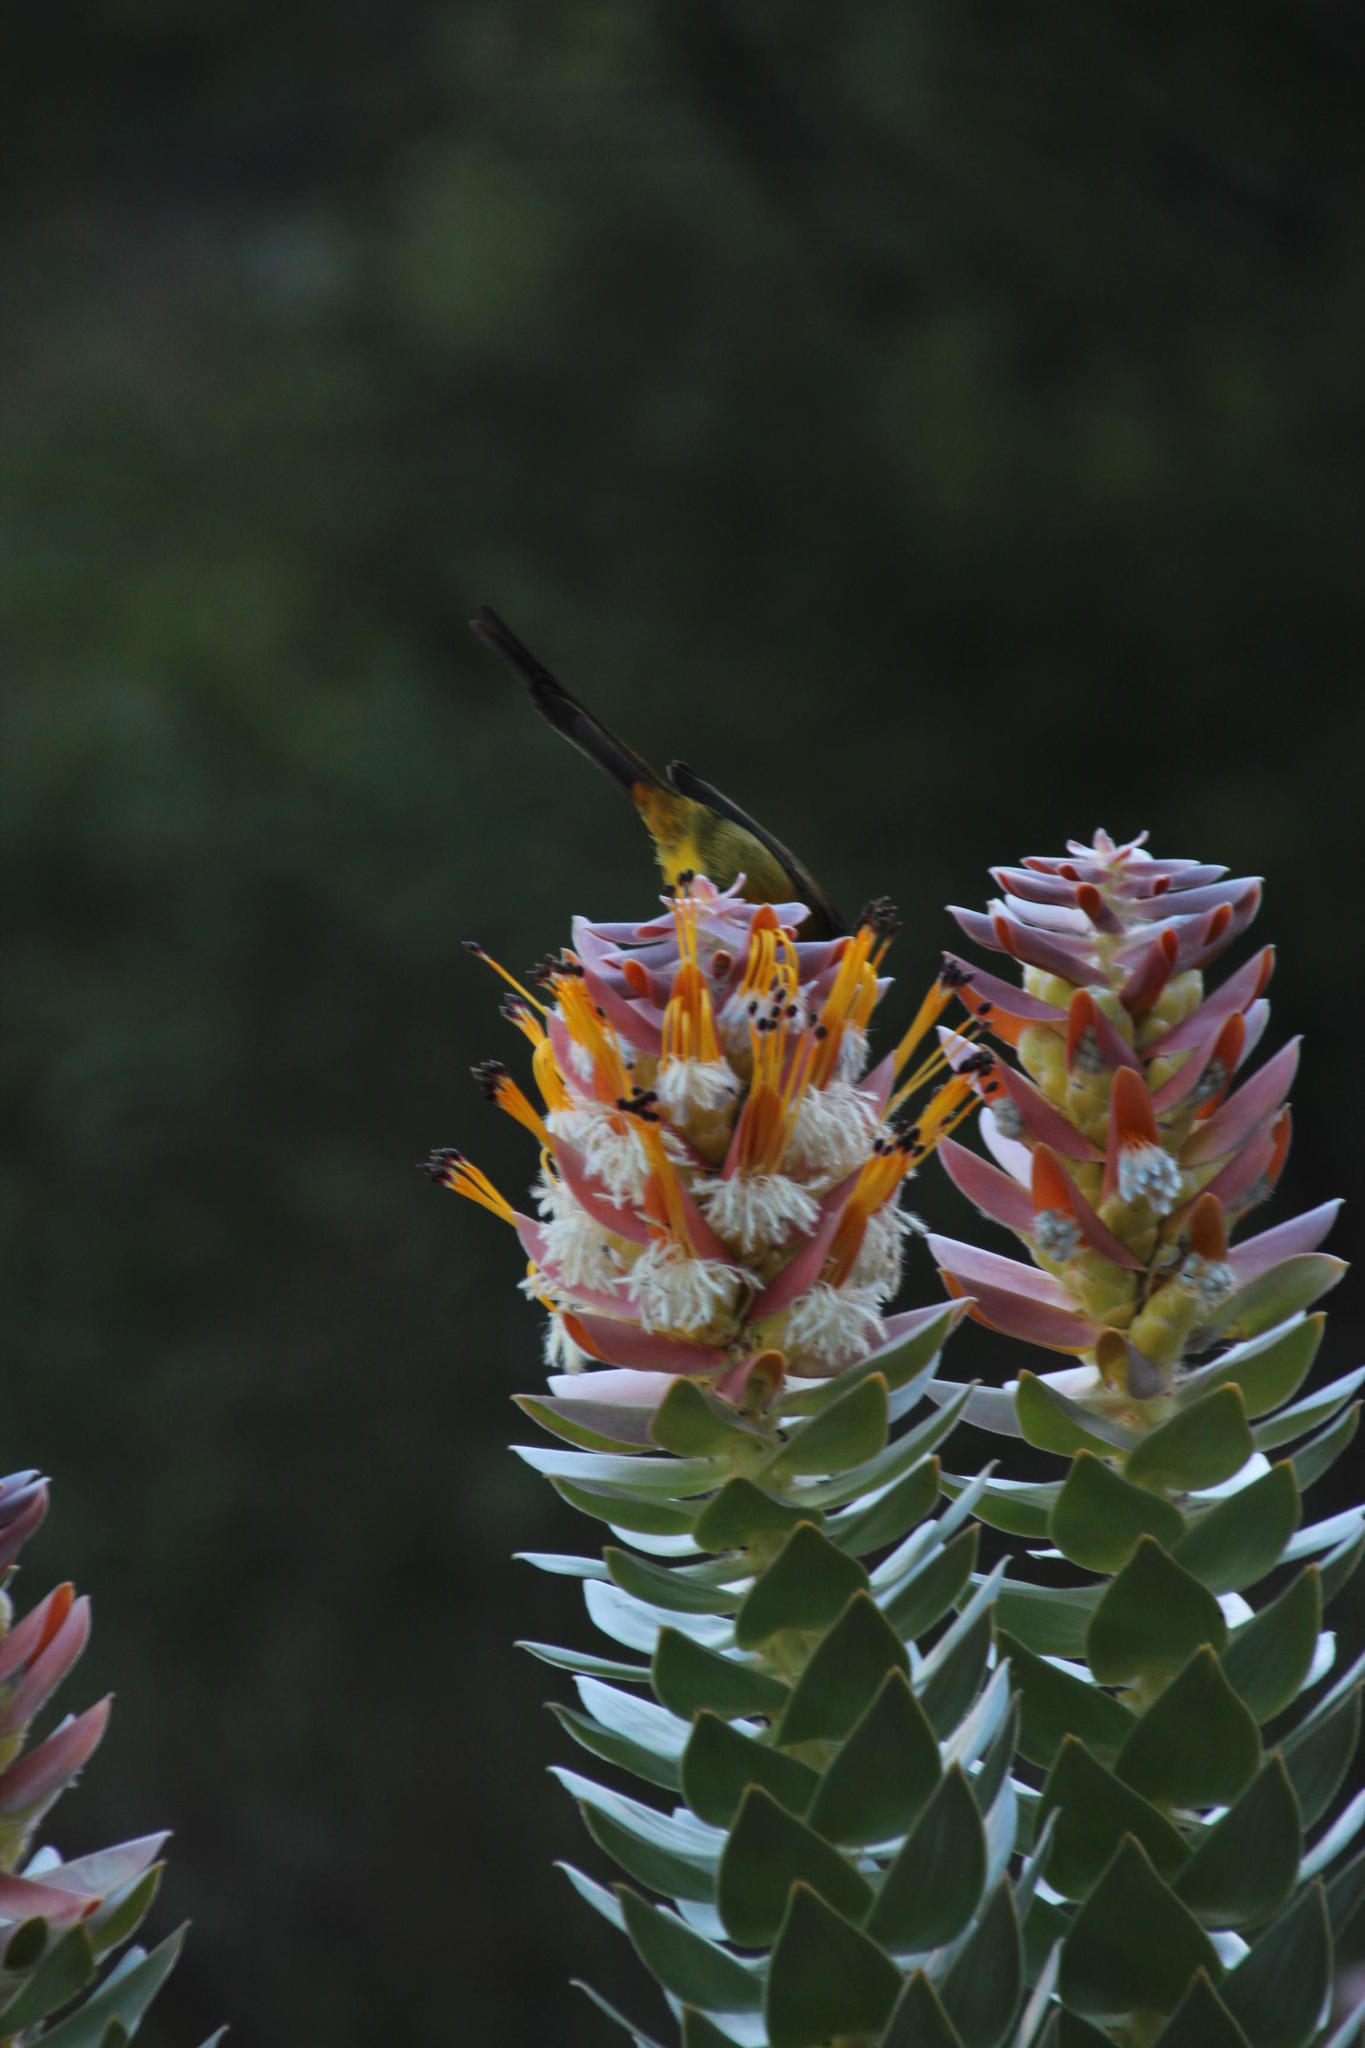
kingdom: Animalia
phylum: Chordata
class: Aves
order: Passeriformes
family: Nectariniidae
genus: Anthobaphes
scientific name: Anthobaphes violacea
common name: Orange-breasted sunbird
